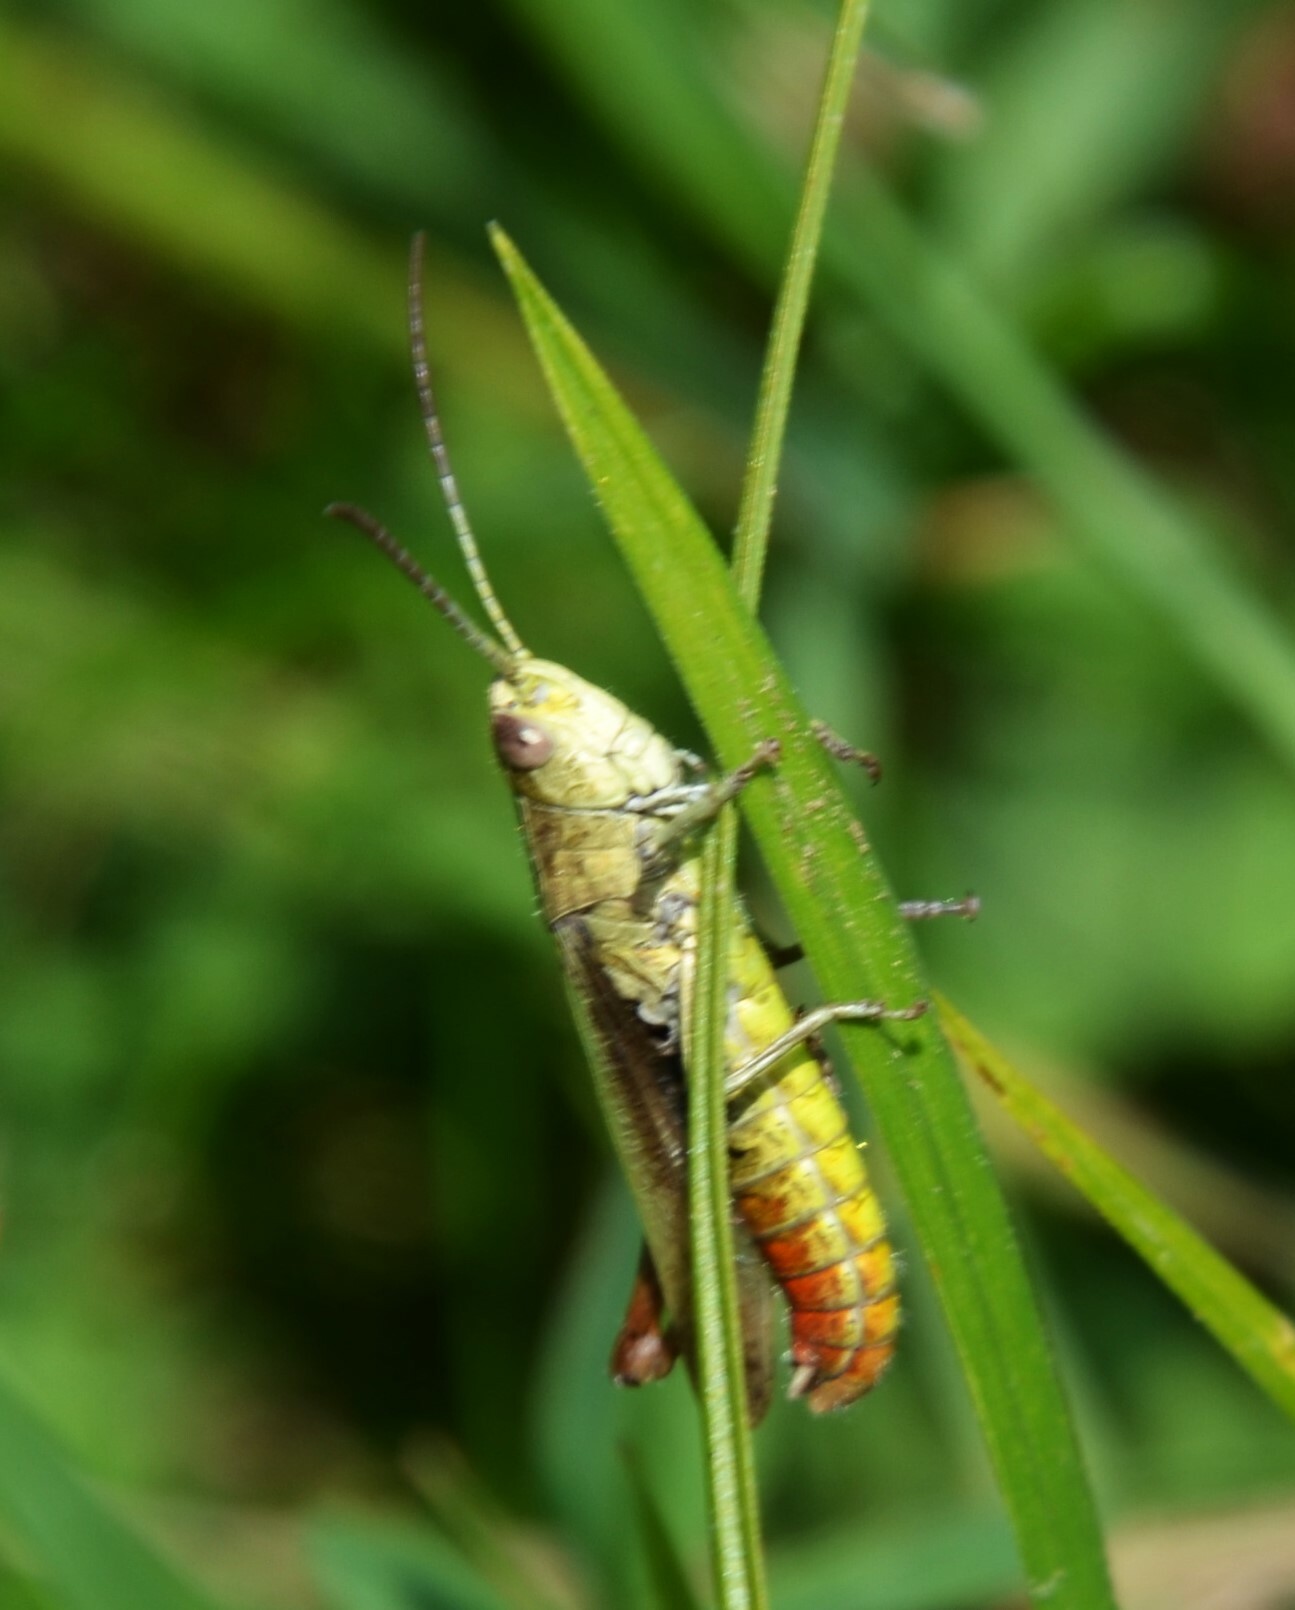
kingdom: Animalia
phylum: Arthropoda
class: Insecta
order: Orthoptera
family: Acrididae
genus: Chorthippus
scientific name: Chorthippus dorsatus
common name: Steppe grasshopper
